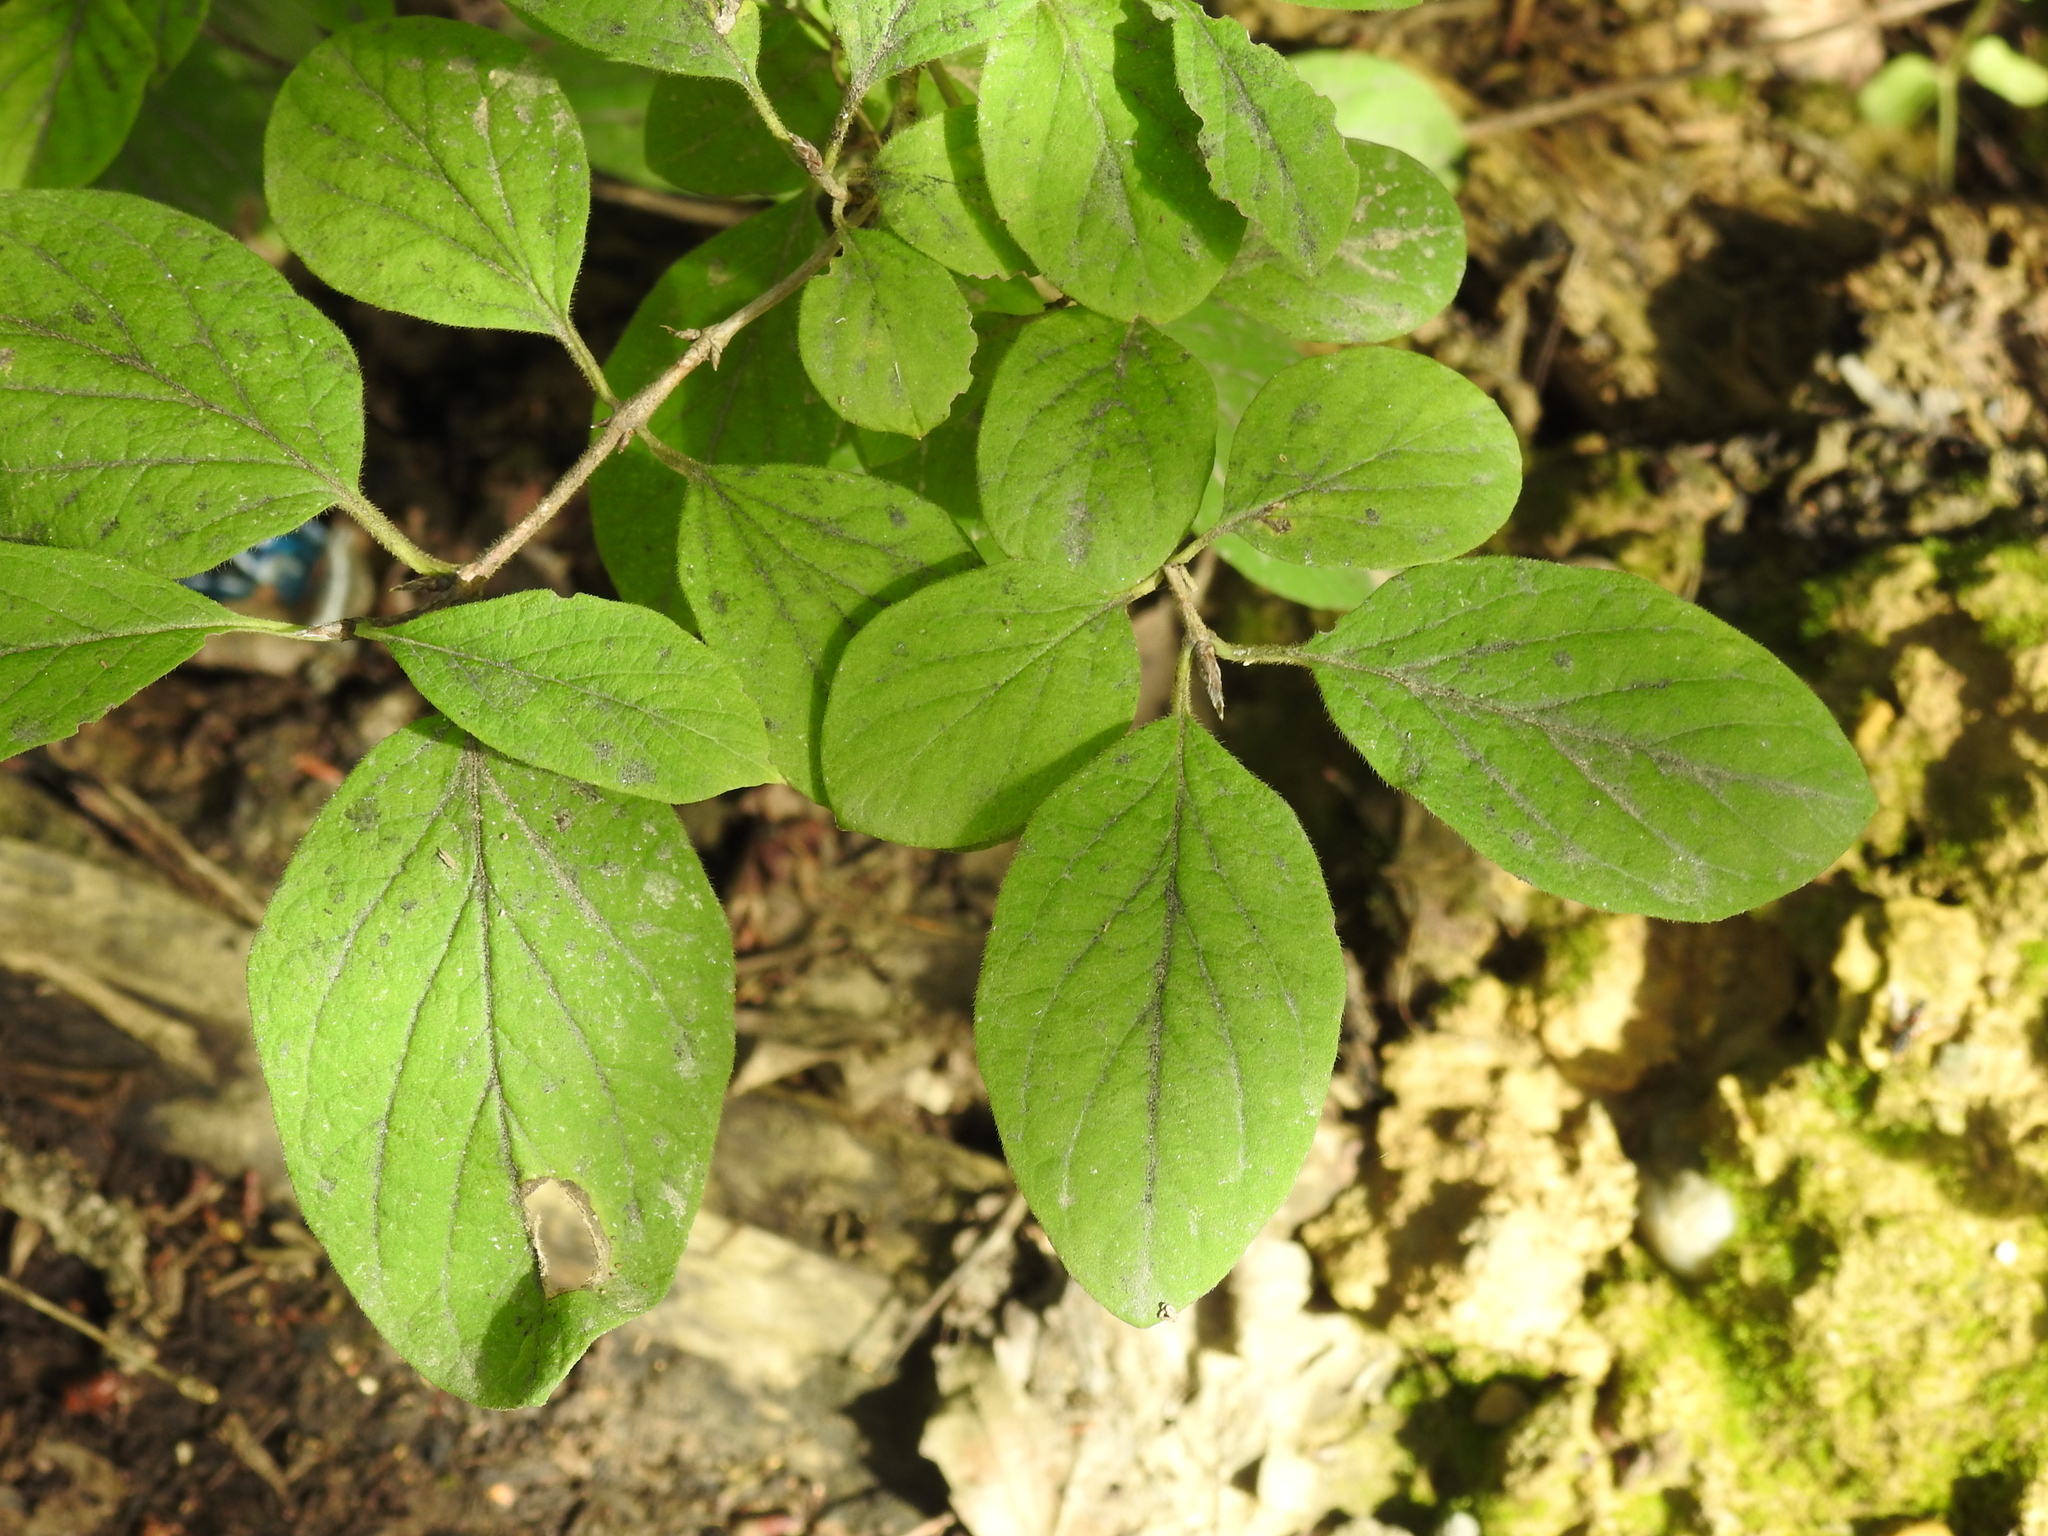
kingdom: Plantae
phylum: Tracheophyta
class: Magnoliopsida
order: Dipsacales
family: Caprifoliaceae
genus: Lonicera
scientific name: Lonicera xylosteum
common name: Fly honeysuckle
